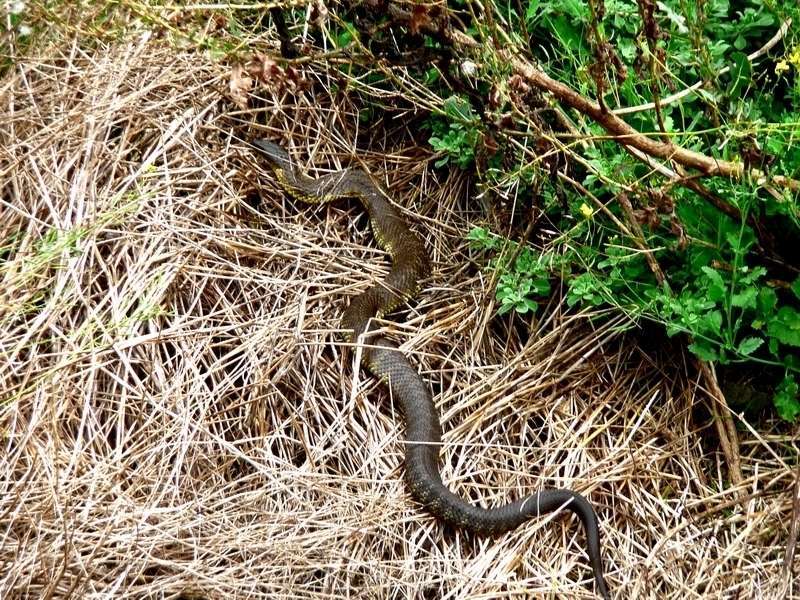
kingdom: Animalia
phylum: Chordata
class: Squamata
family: Elapidae
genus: Notechis
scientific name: Notechis scutatus
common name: Mainland tiger snake
